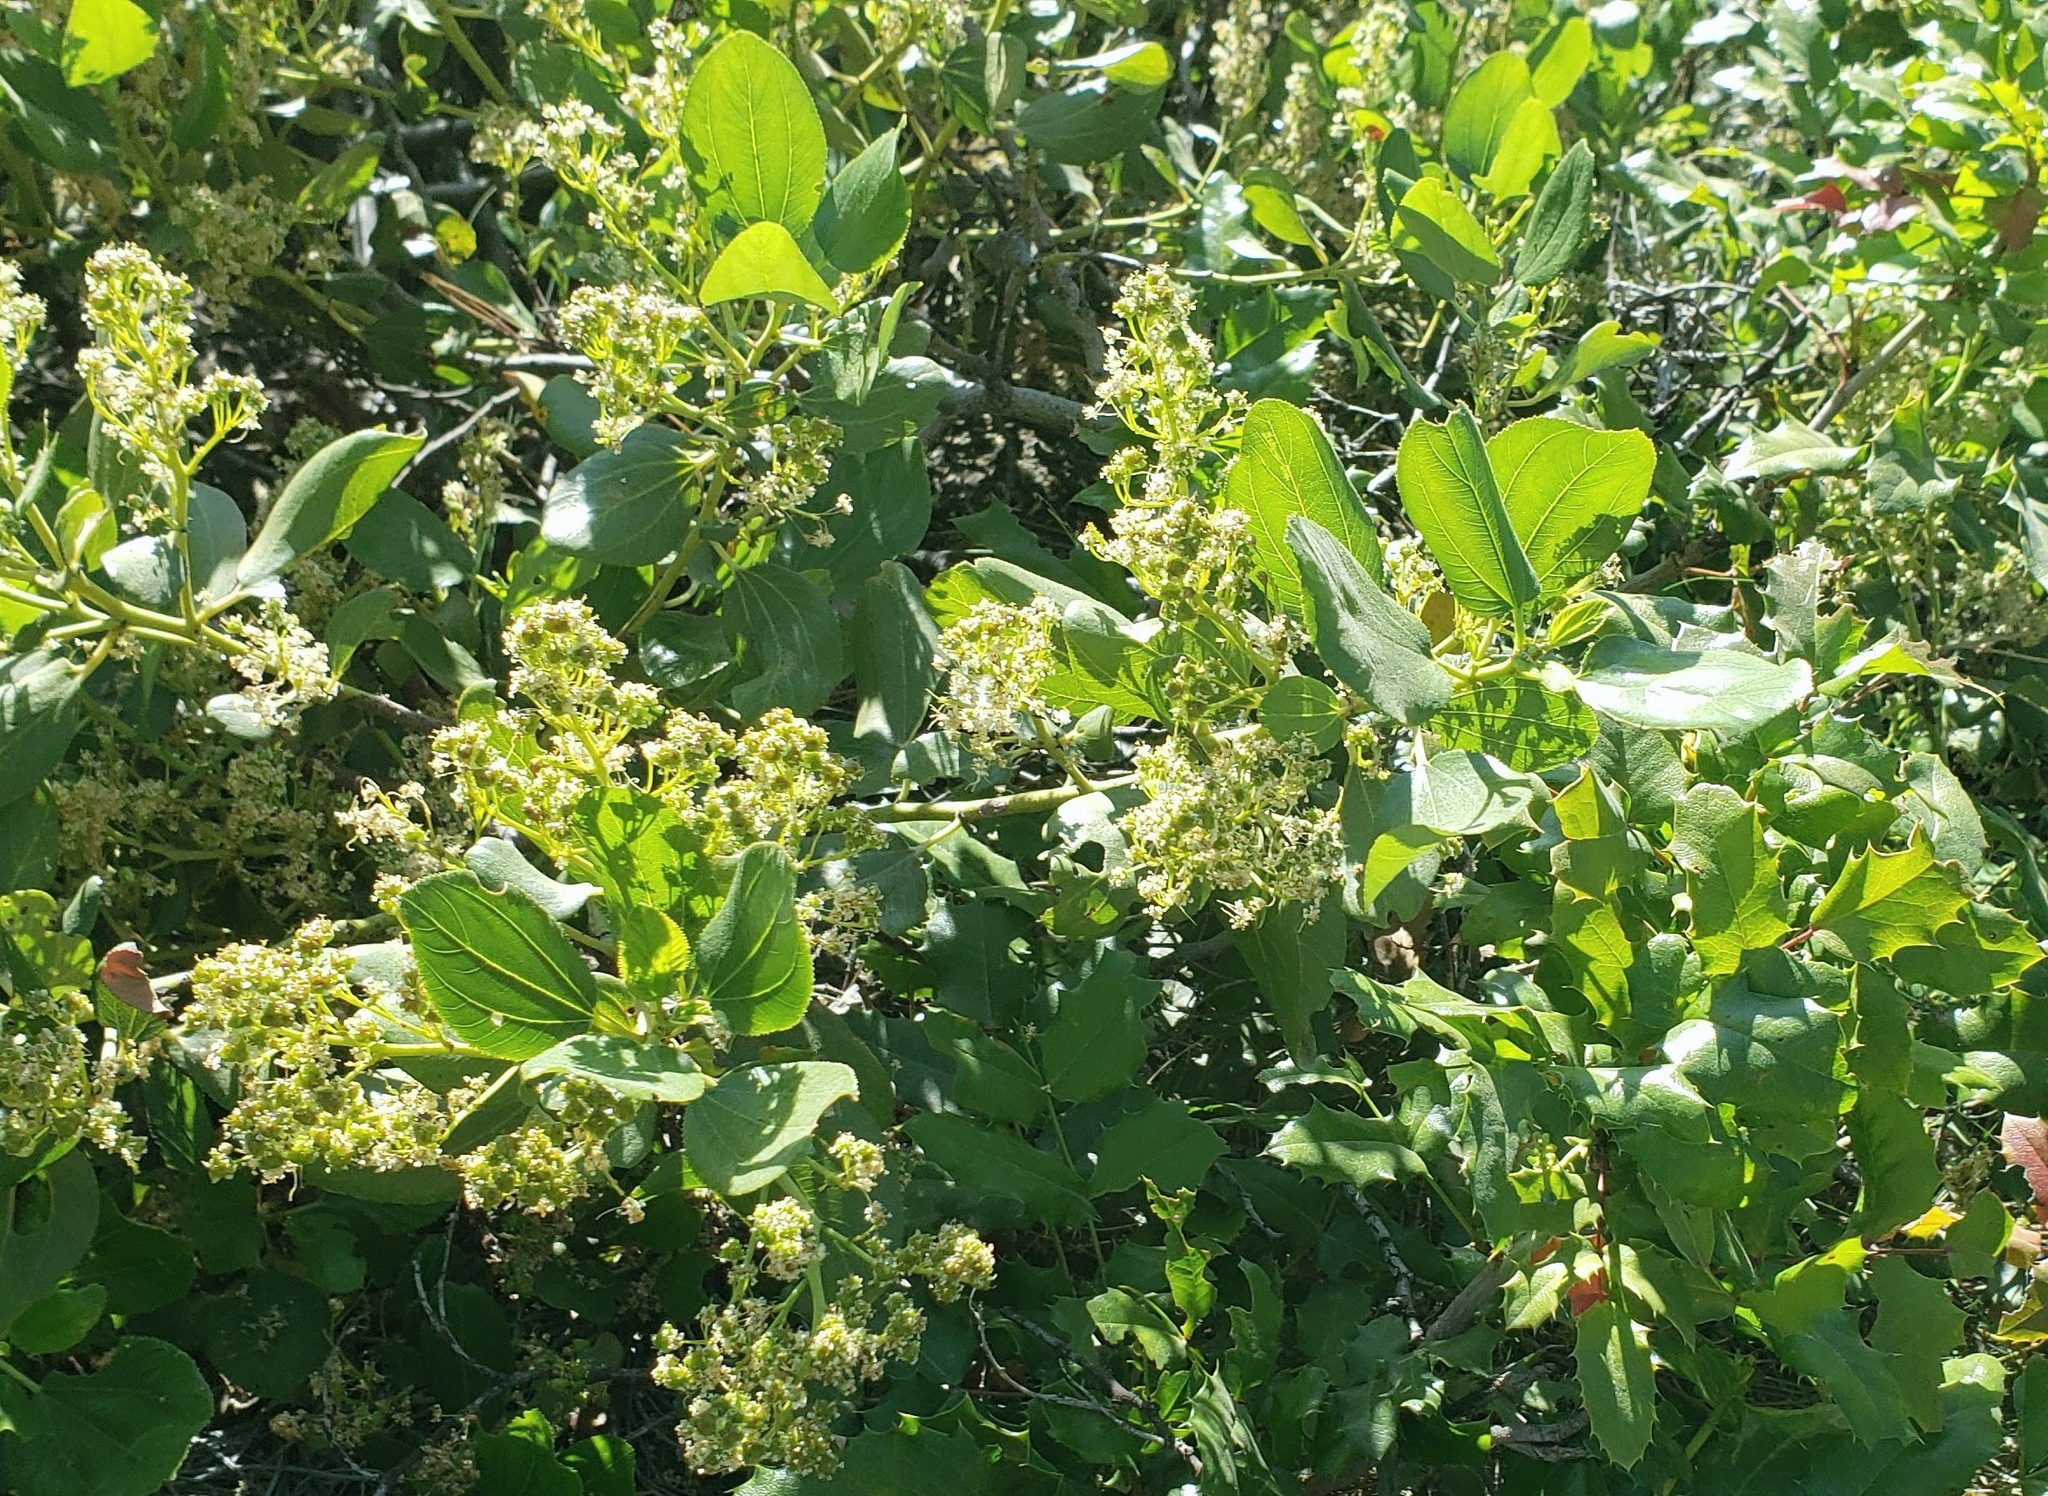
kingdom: Plantae
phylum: Tracheophyta
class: Magnoliopsida
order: Rosales
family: Rhamnaceae
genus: Ceanothus
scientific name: Ceanothus velutinus
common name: Snowbrush
